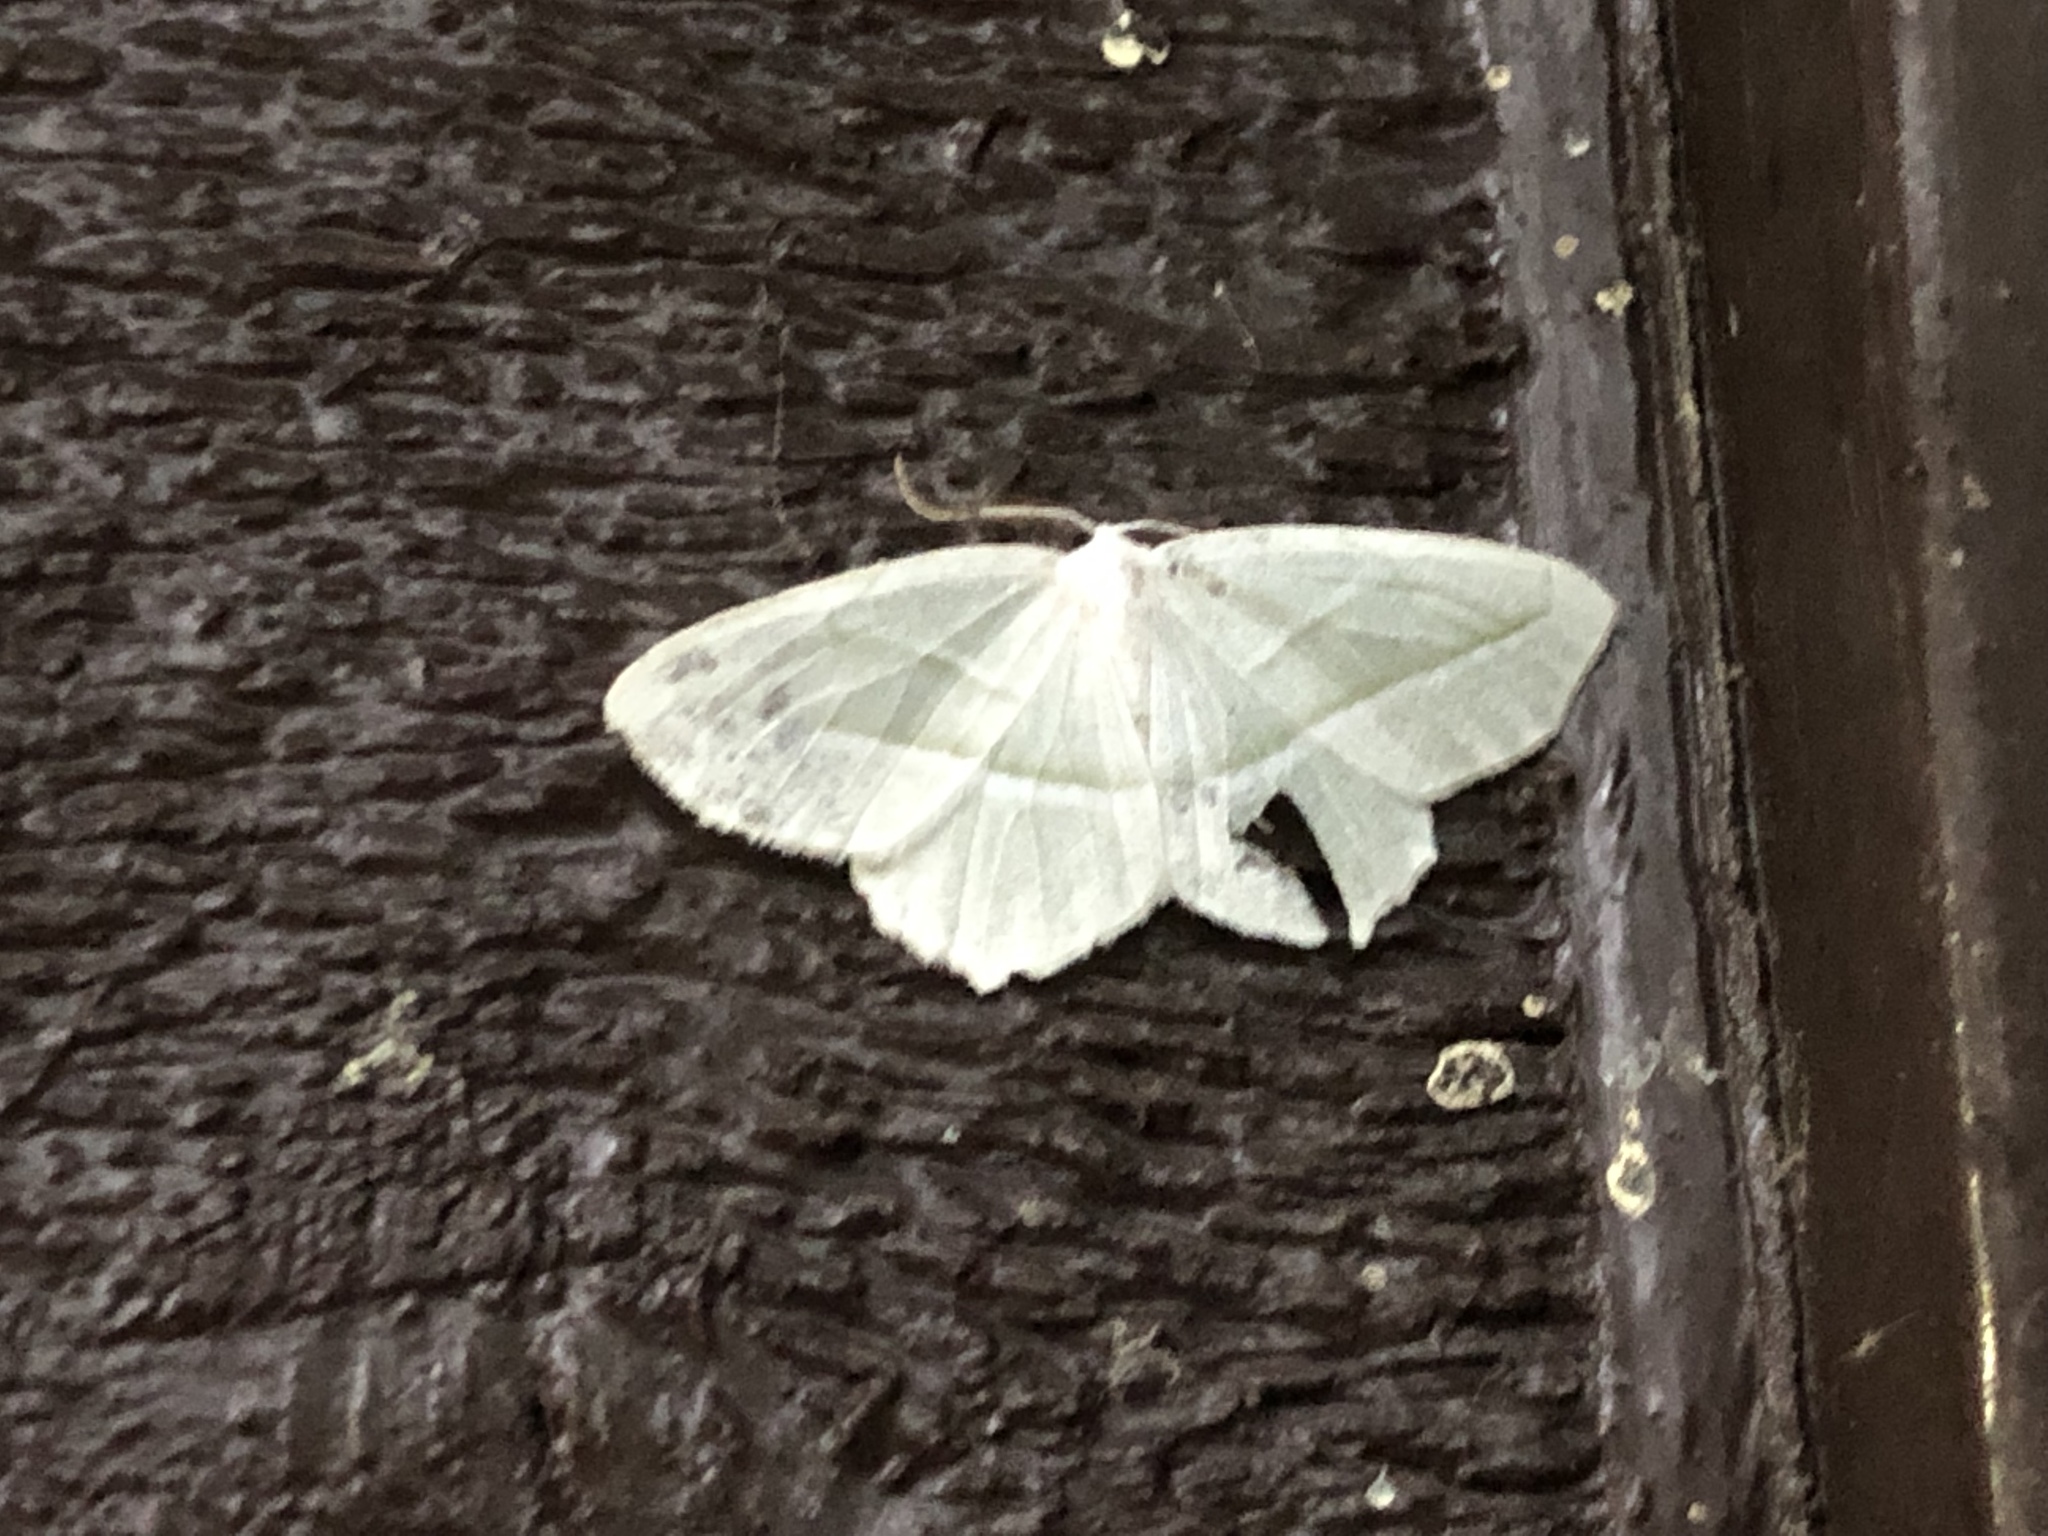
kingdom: Animalia
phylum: Arthropoda
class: Insecta
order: Lepidoptera
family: Geometridae
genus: Campaea
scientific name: Campaea perlata
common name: Fringed looper
